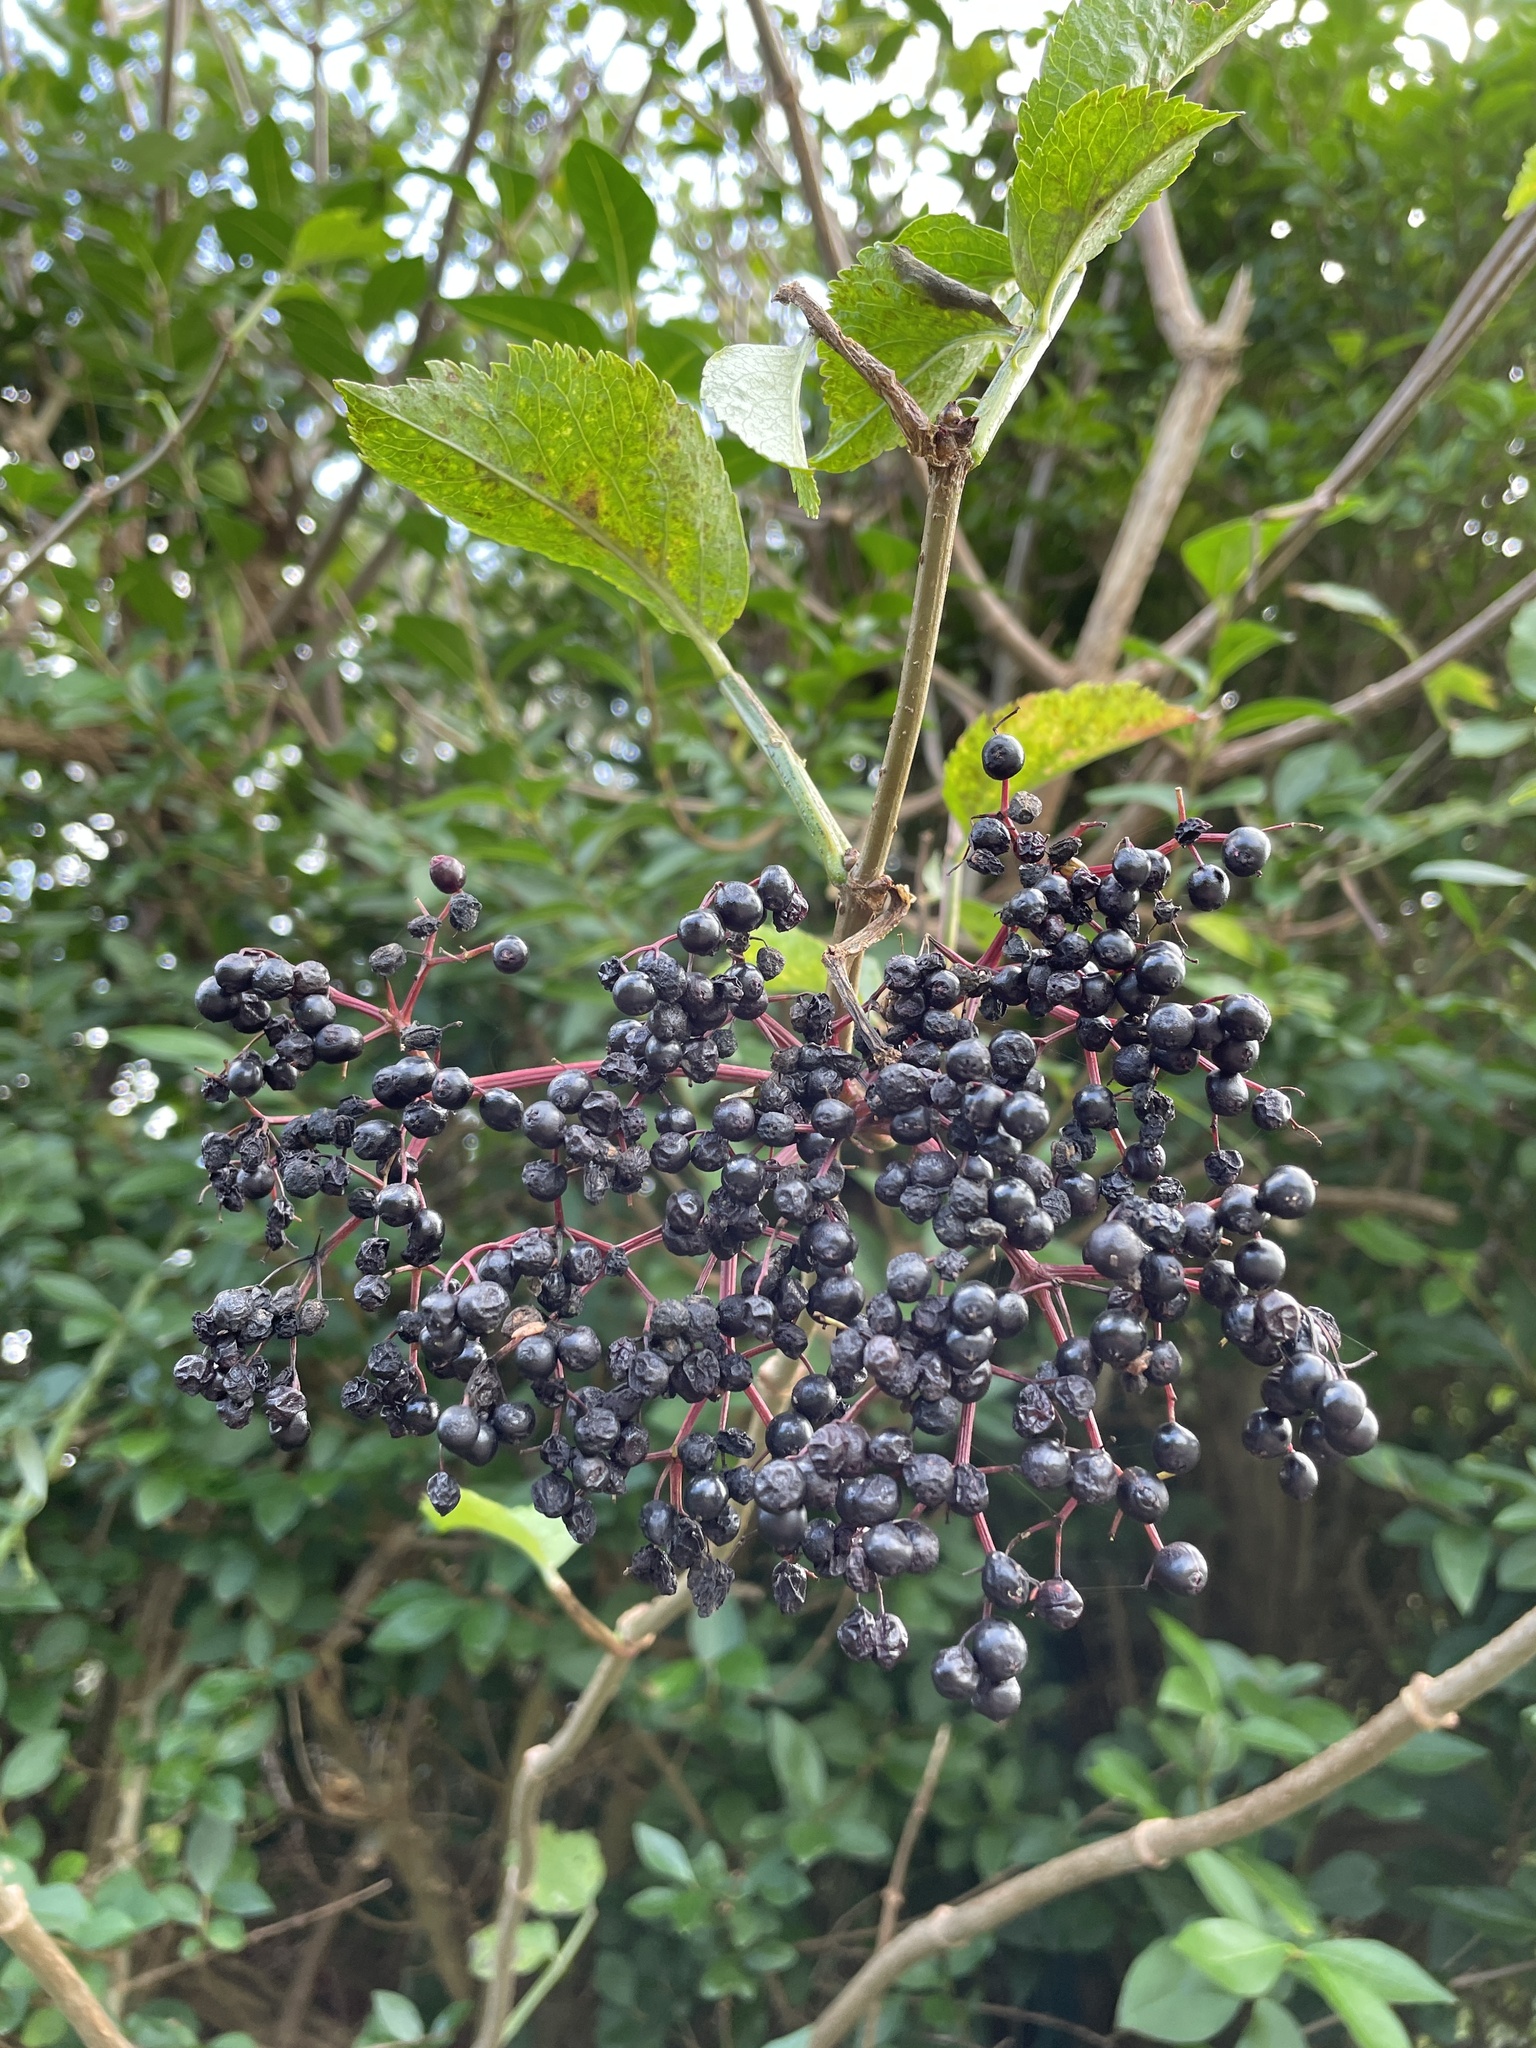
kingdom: Plantae
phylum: Tracheophyta
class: Magnoliopsida
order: Dipsacales
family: Viburnaceae
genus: Sambucus
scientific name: Sambucus nigra
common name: Elder
